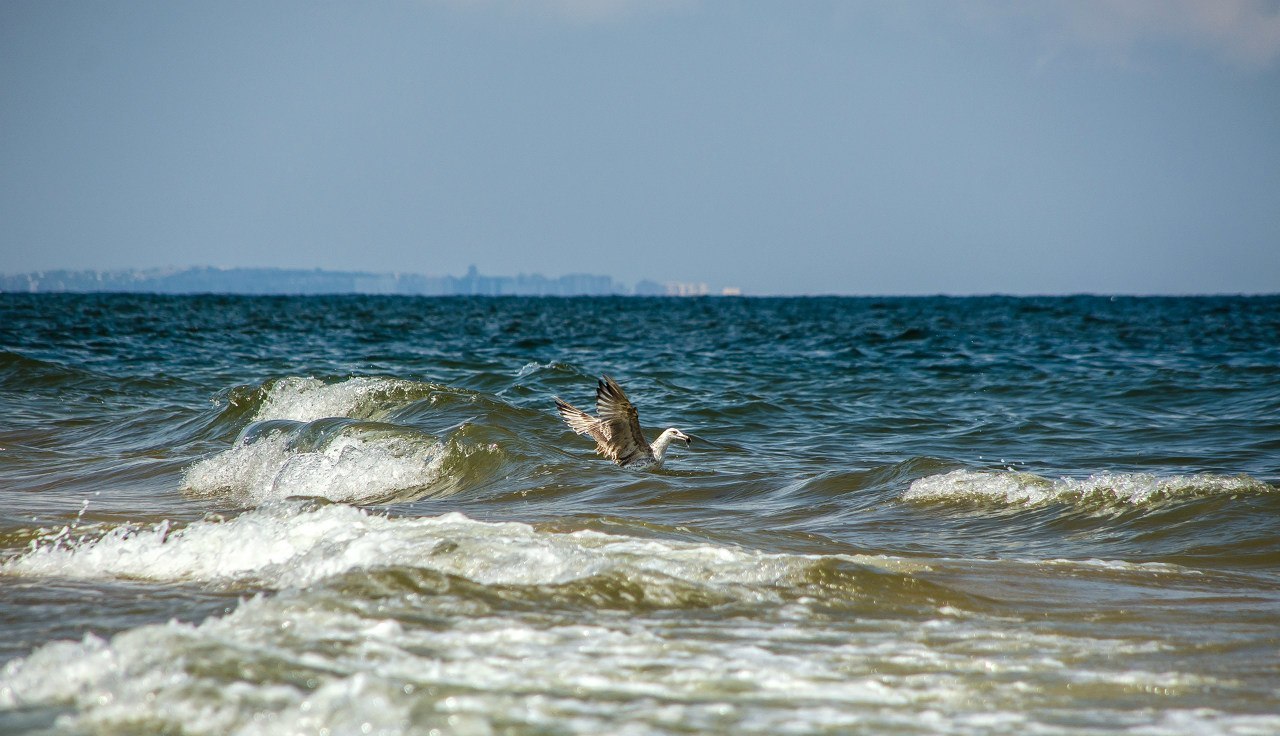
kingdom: Animalia
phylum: Chordata
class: Aves
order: Charadriiformes
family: Laridae
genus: Larus
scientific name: Larus michahellis
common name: Yellow-legged gull
